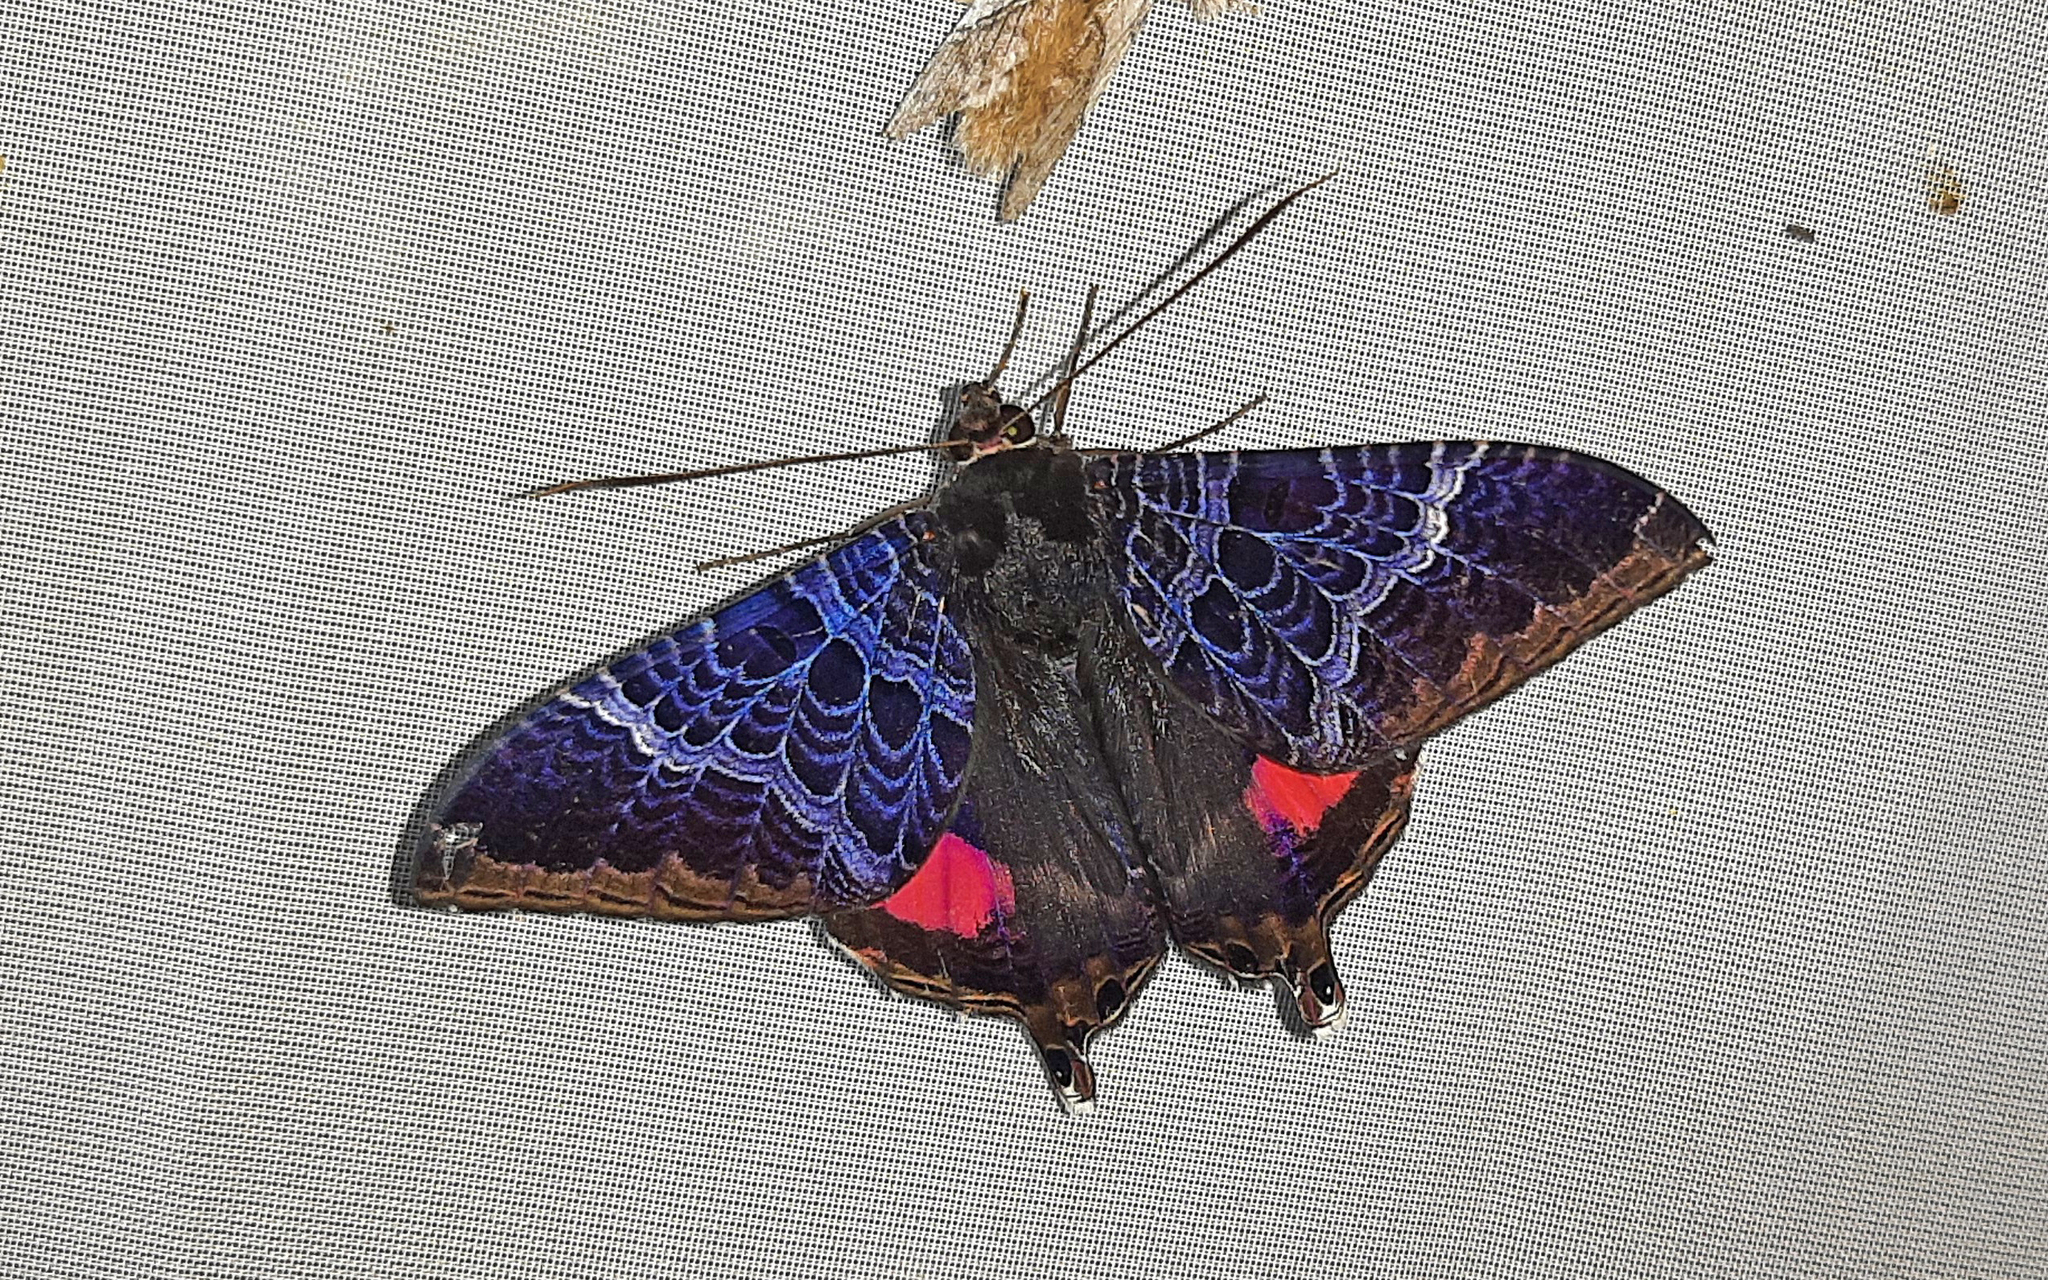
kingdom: Animalia
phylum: Arthropoda
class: Insecta
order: Lepidoptera
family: Sematuridae
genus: Coronidia
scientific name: Coronidia
